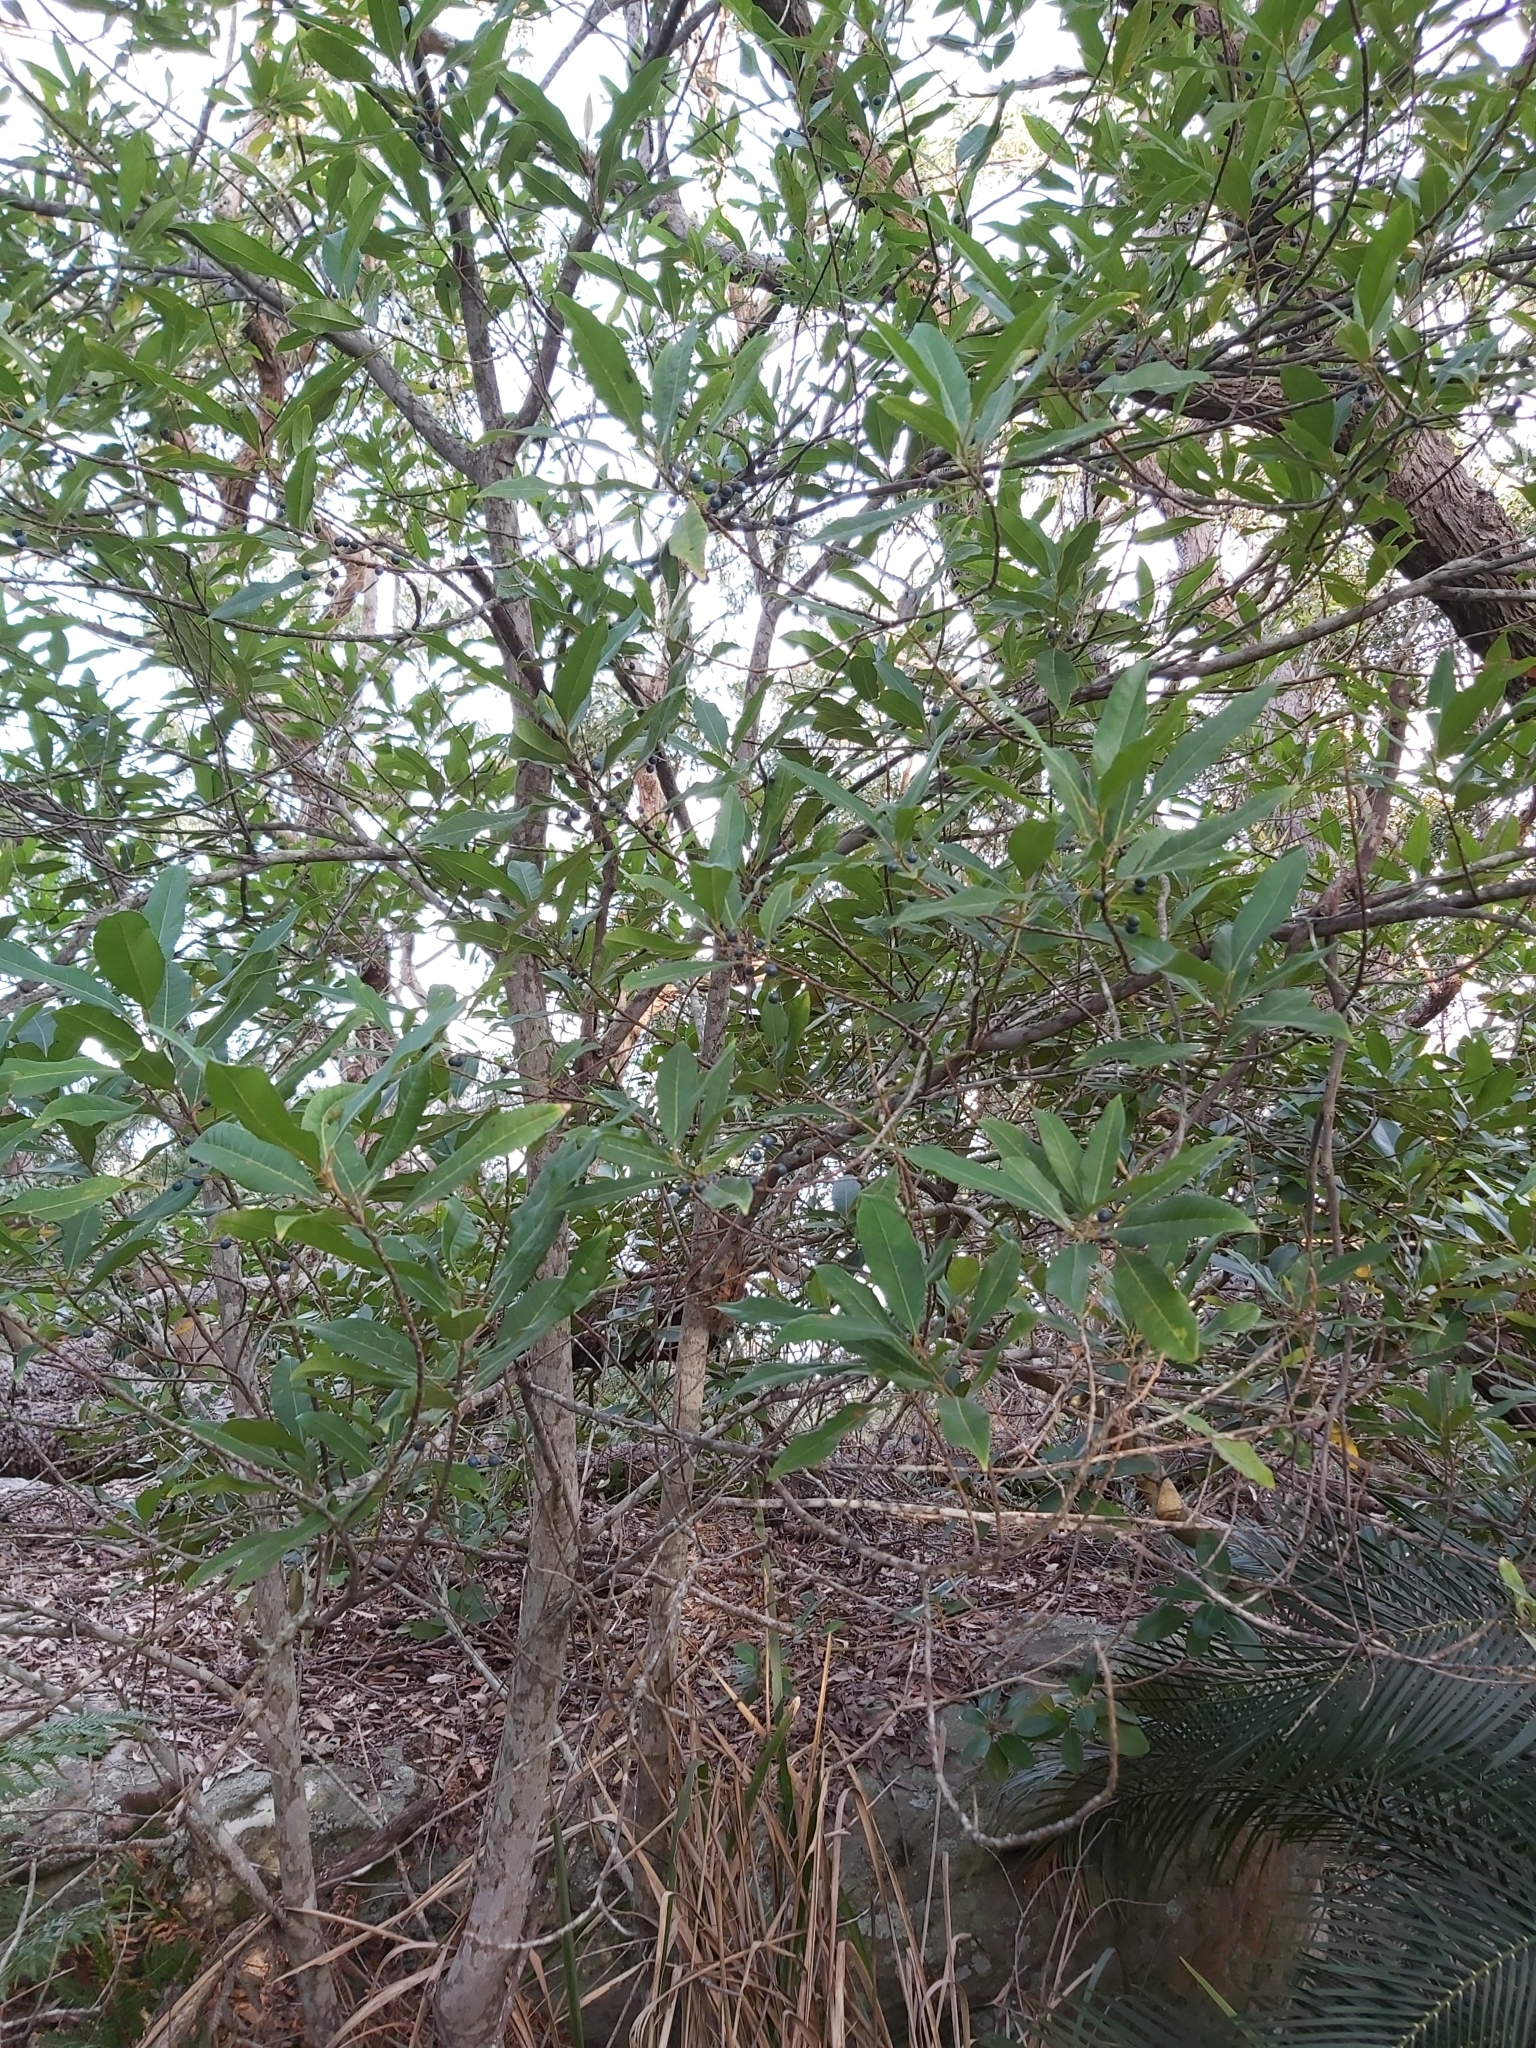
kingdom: Plantae
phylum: Tracheophyta
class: Magnoliopsida
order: Oxalidales
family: Elaeocarpaceae
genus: Elaeocarpus
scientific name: Elaeocarpus reticulatus
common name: Ash quandong
